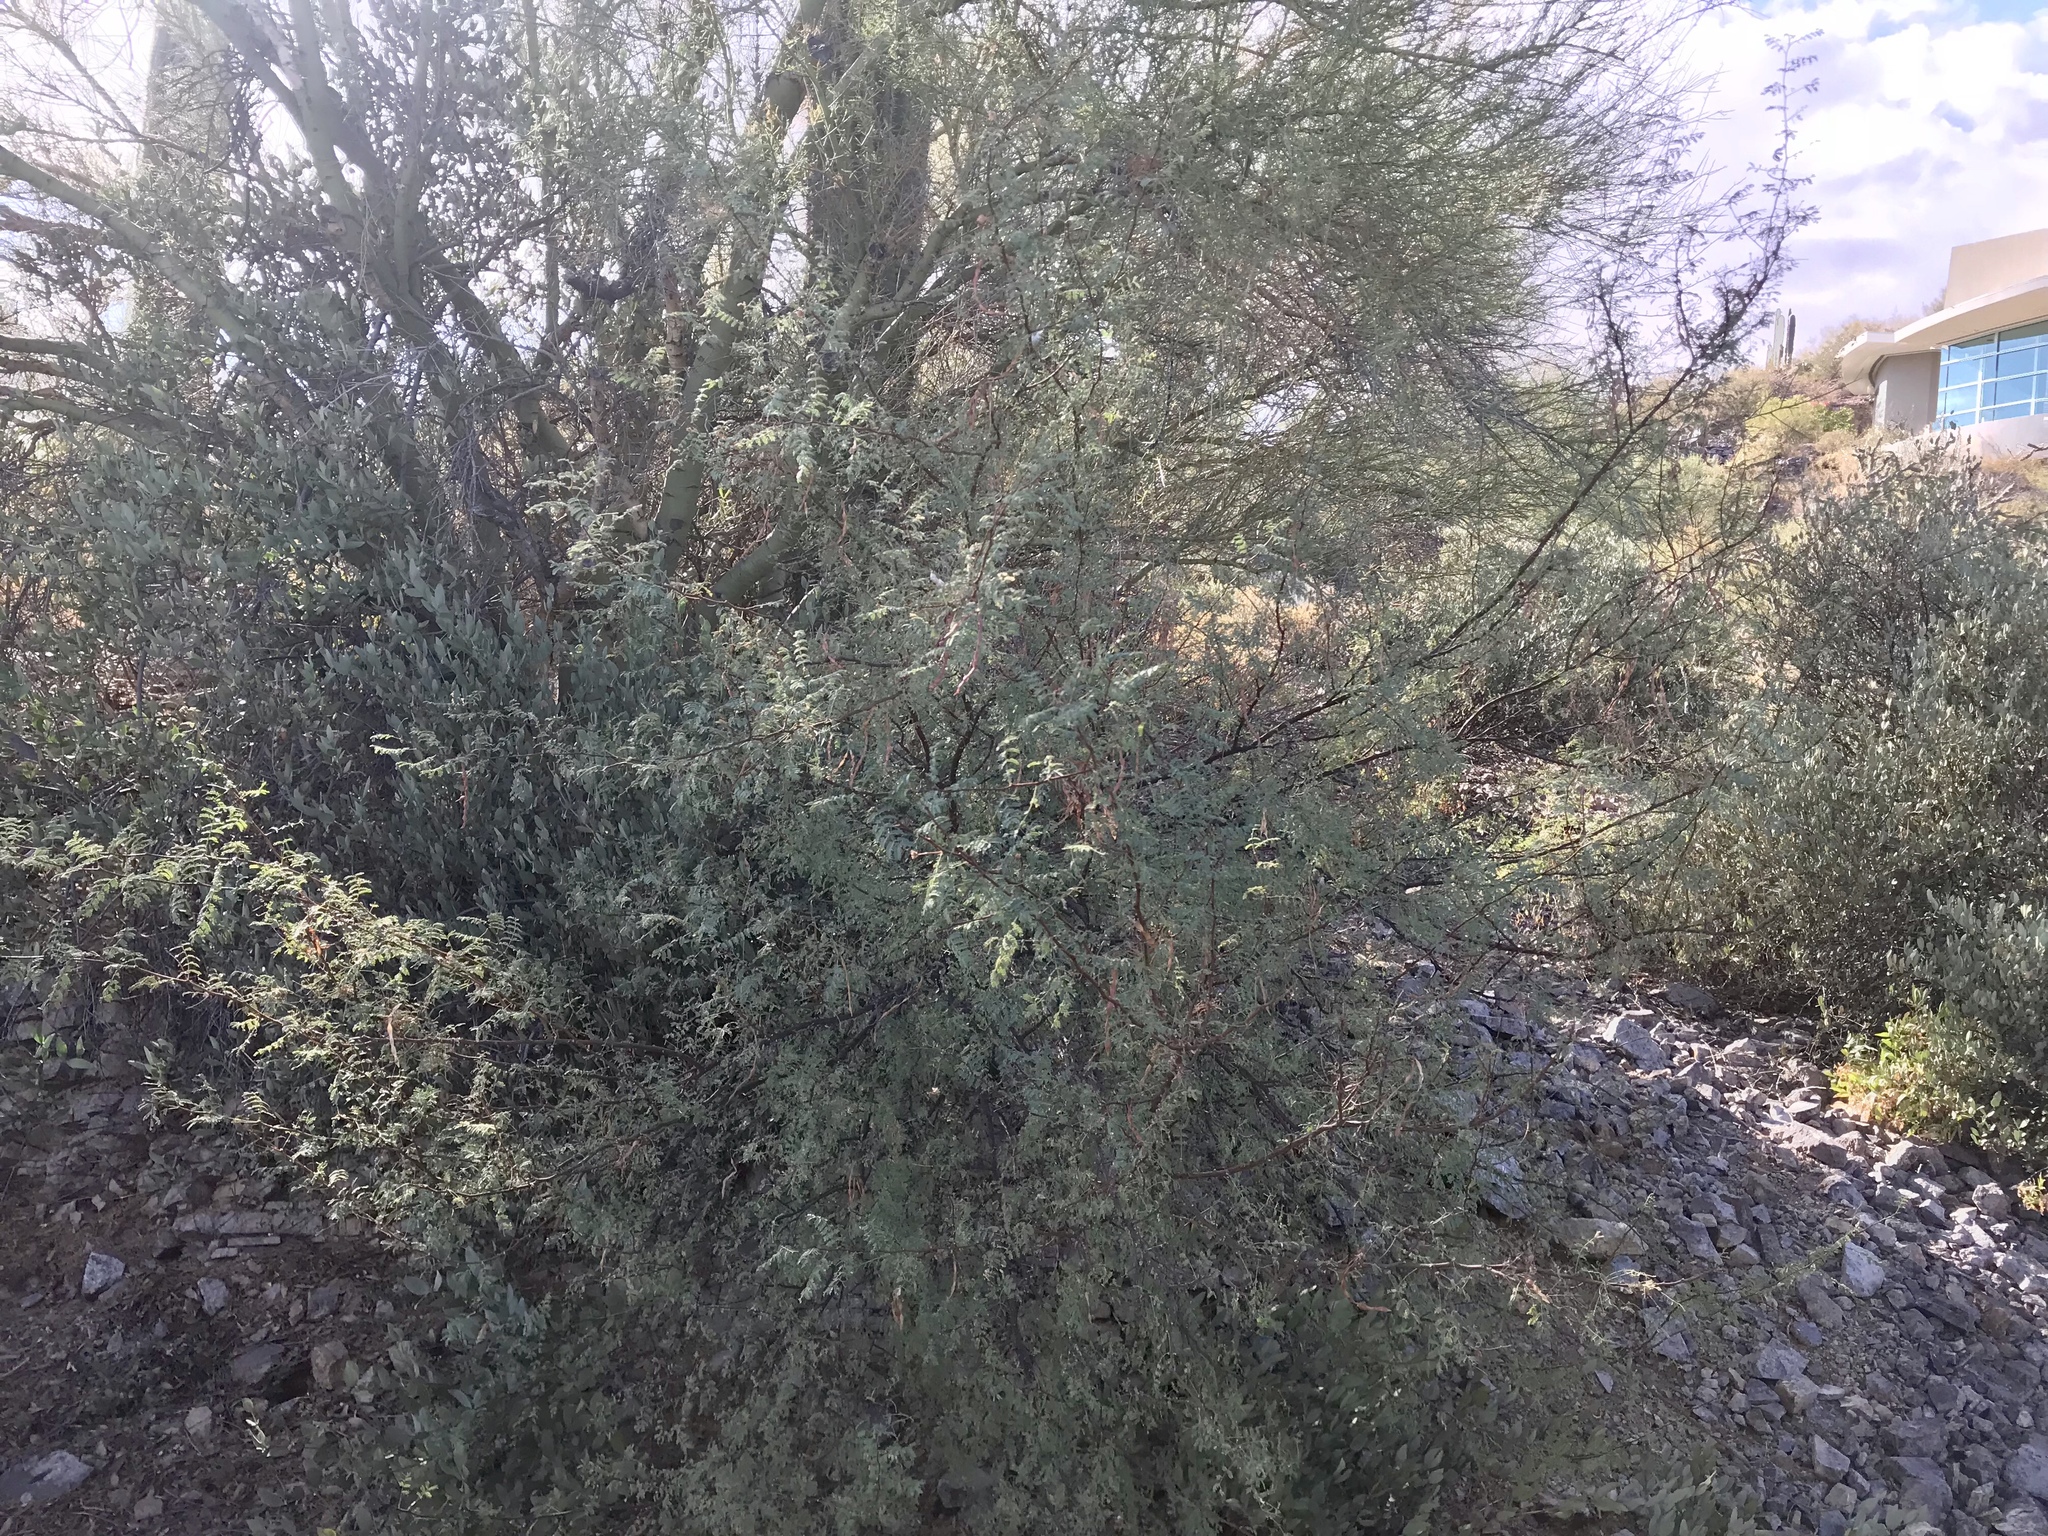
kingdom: Plantae
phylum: Tracheophyta
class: Magnoliopsida
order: Fabales
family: Fabaceae
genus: Parkinsonia
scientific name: Parkinsonia microphylla
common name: Yellow paloverde
